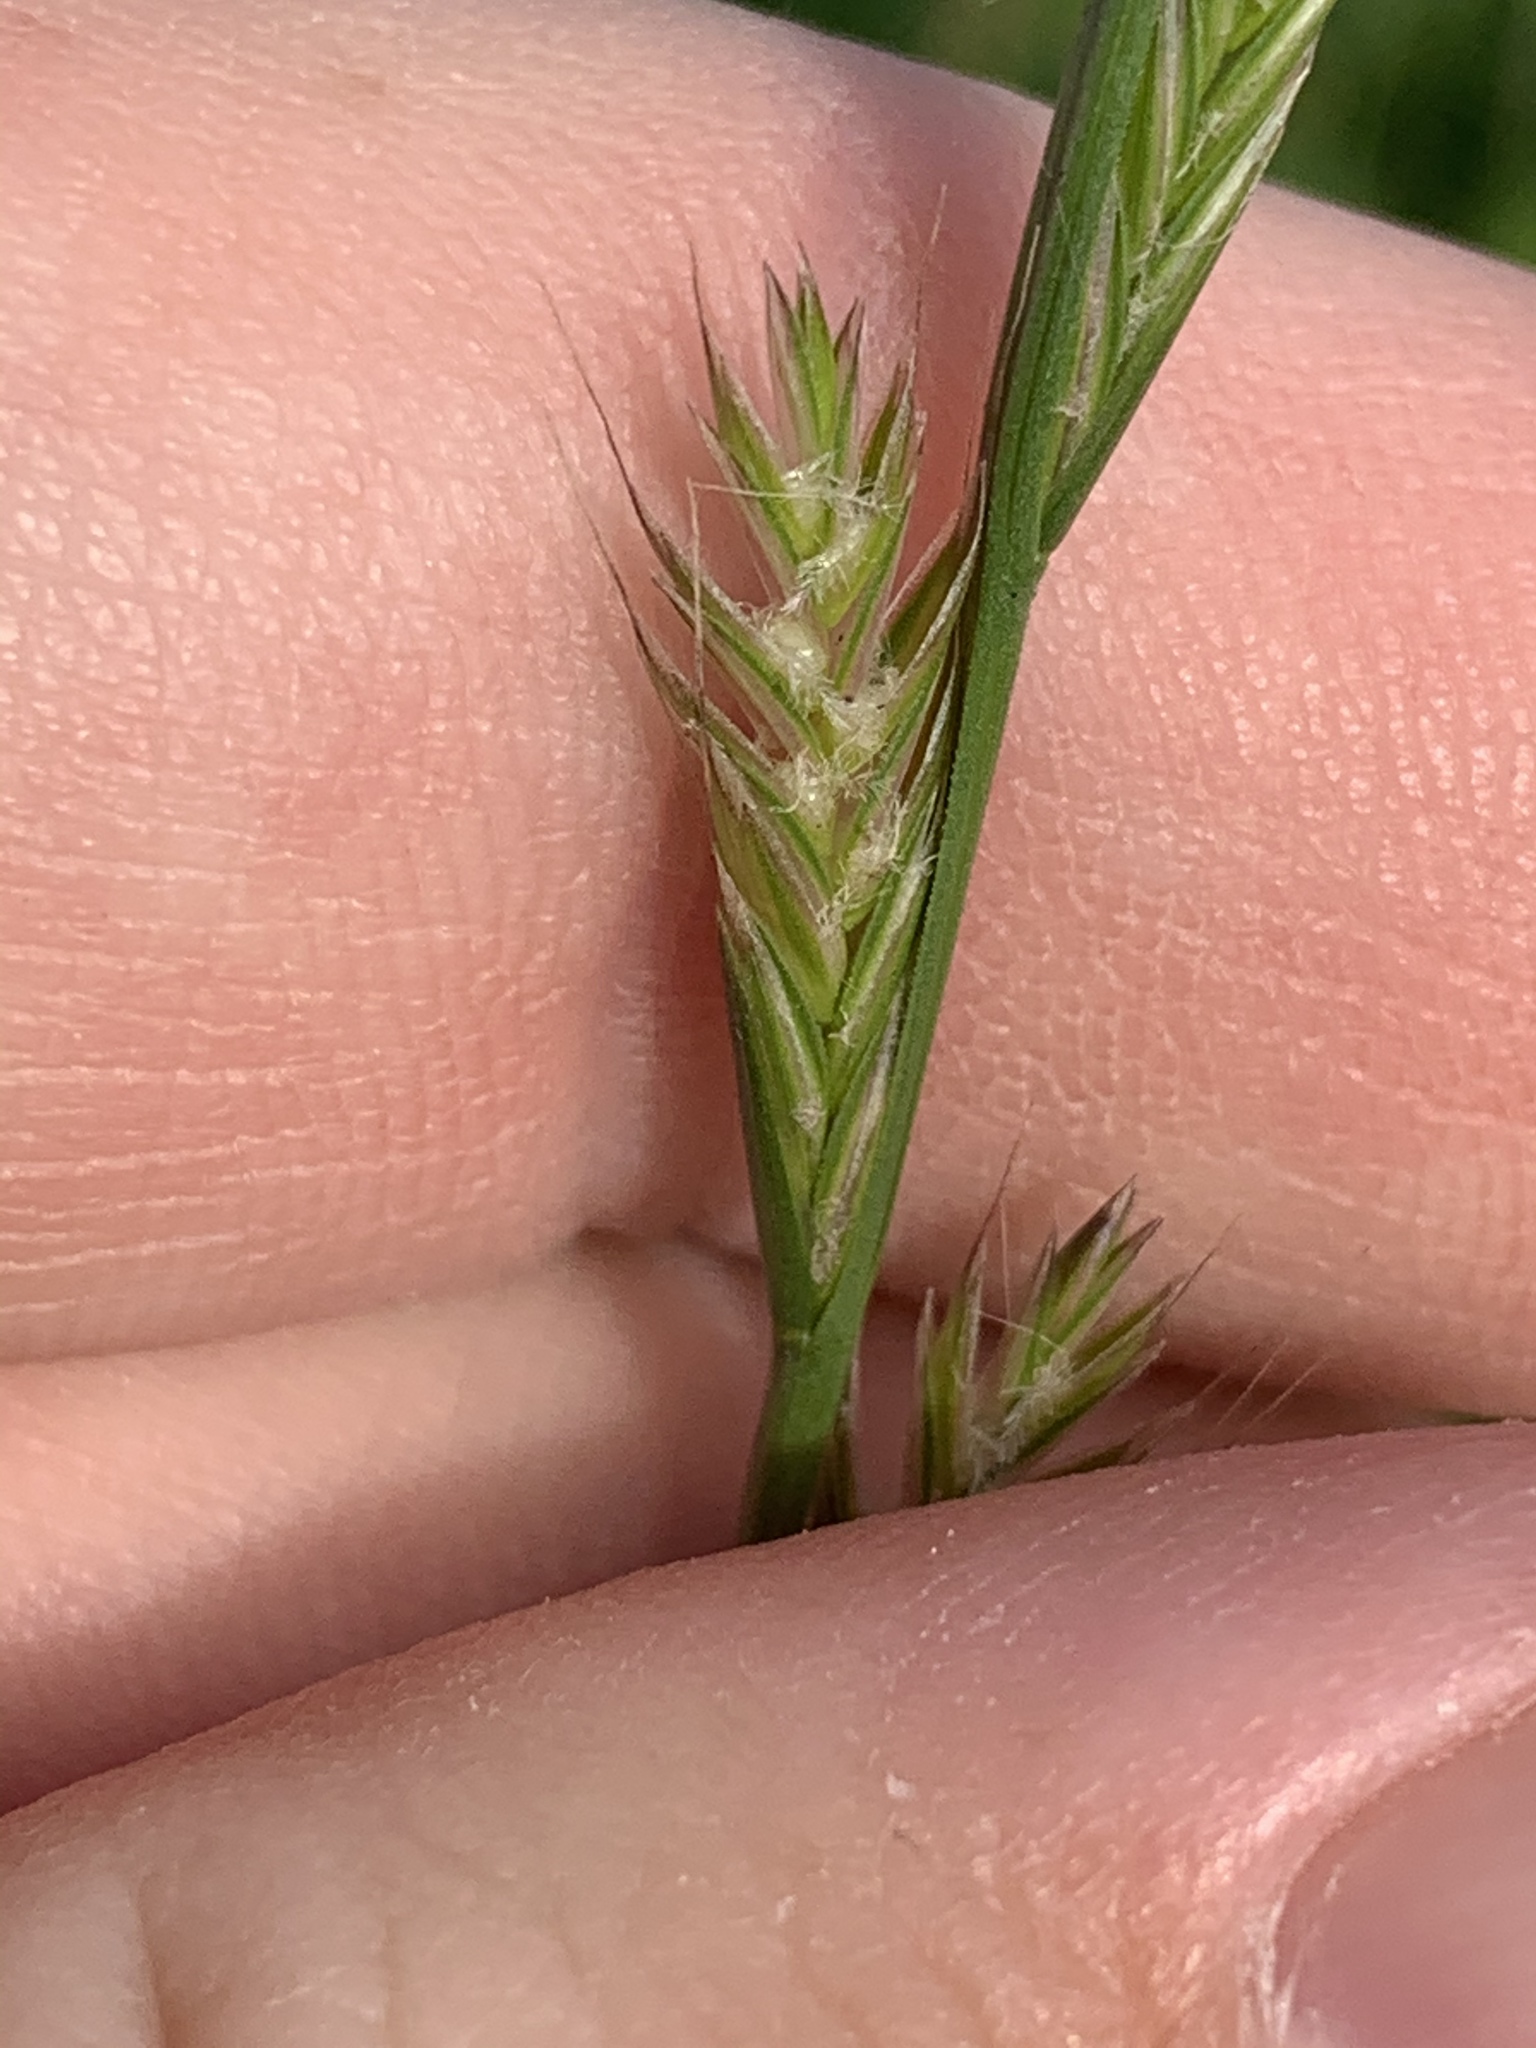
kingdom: Plantae
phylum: Tracheophyta
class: Liliopsida
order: Poales
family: Poaceae
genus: Lolium
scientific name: Lolium multiflorum
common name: Annual ryegrass
